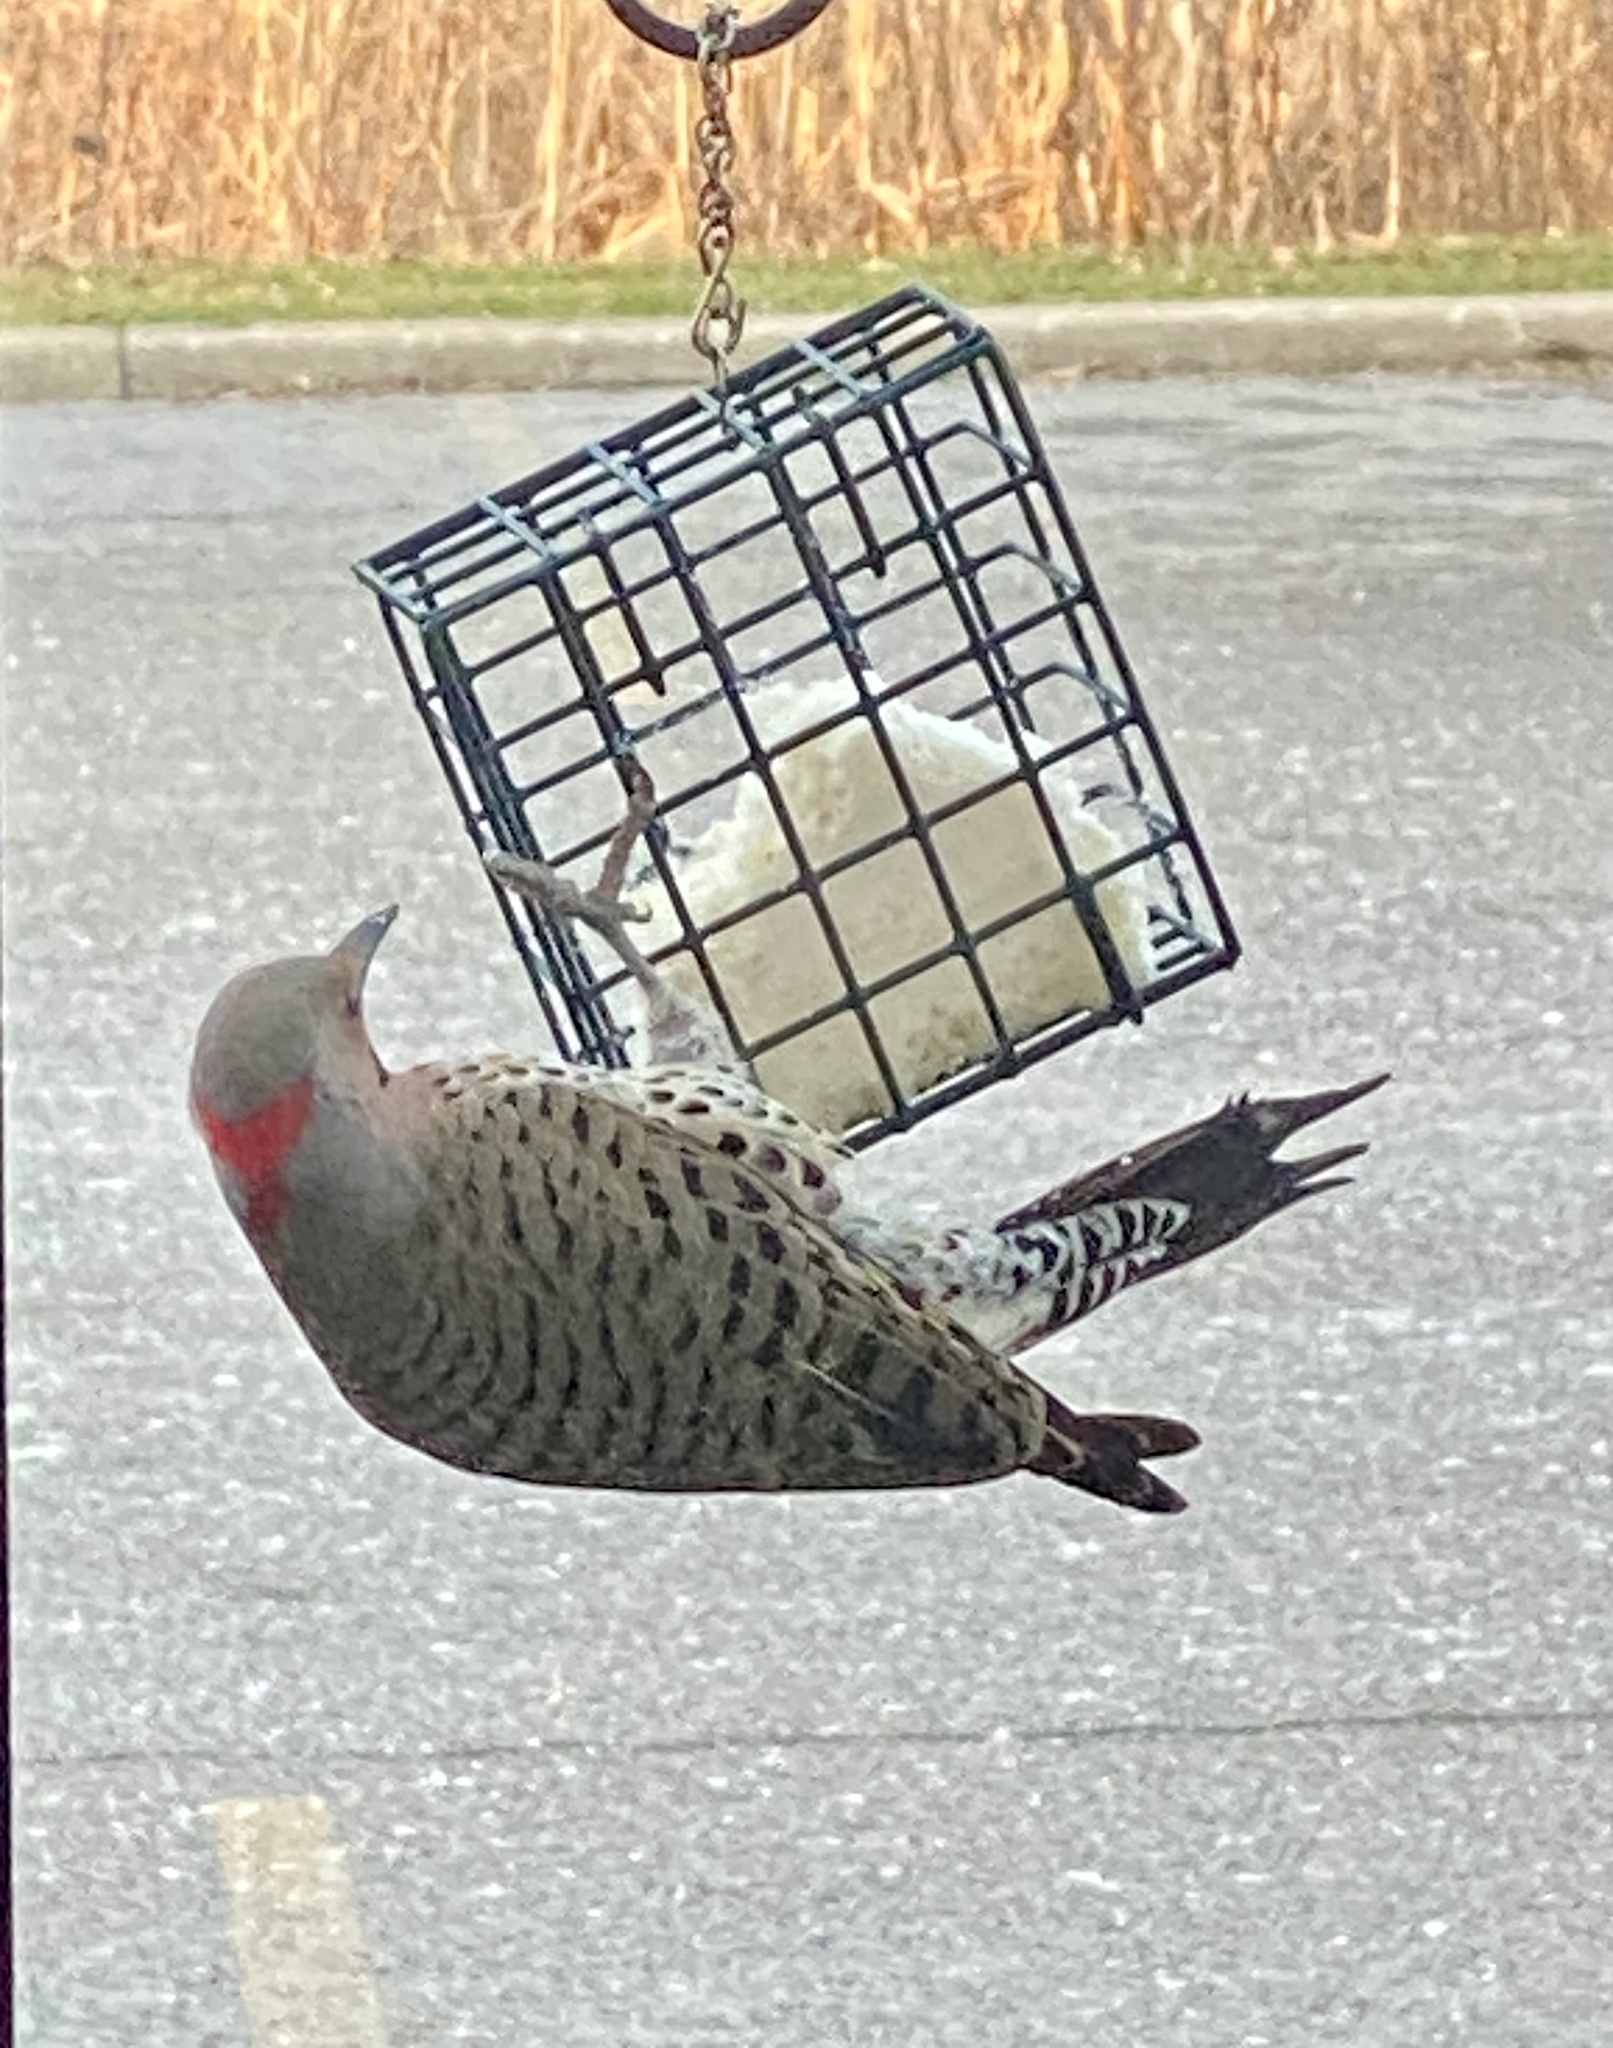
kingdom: Animalia
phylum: Chordata
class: Aves
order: Piciformes
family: Picidae
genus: Colaptes
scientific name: Colaptes auratus
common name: Northern flicker
